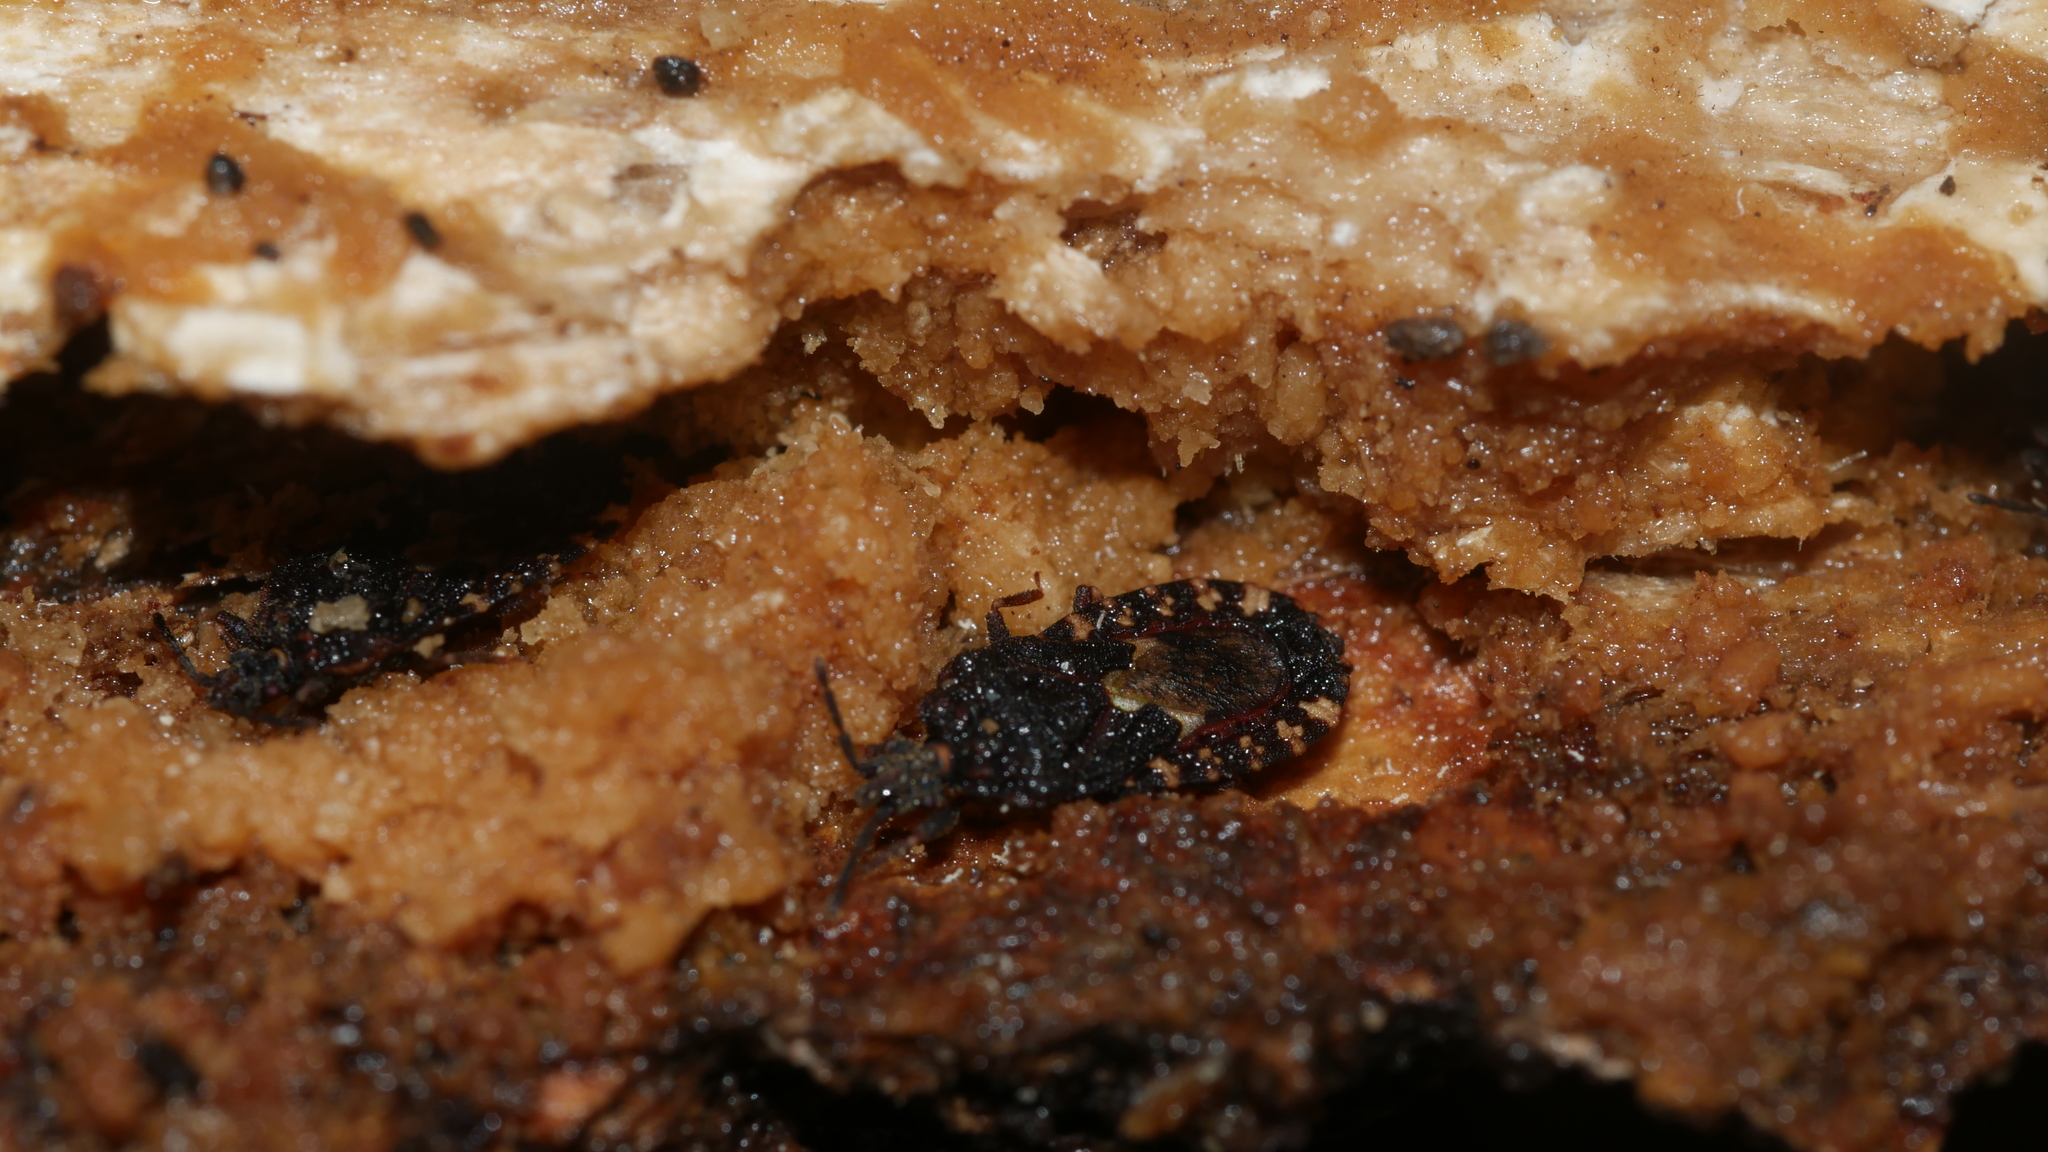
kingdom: Animalia
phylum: Arthropoda
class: Insecta
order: Hemiptera
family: Aradidae
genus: Mezira
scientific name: Mezira
